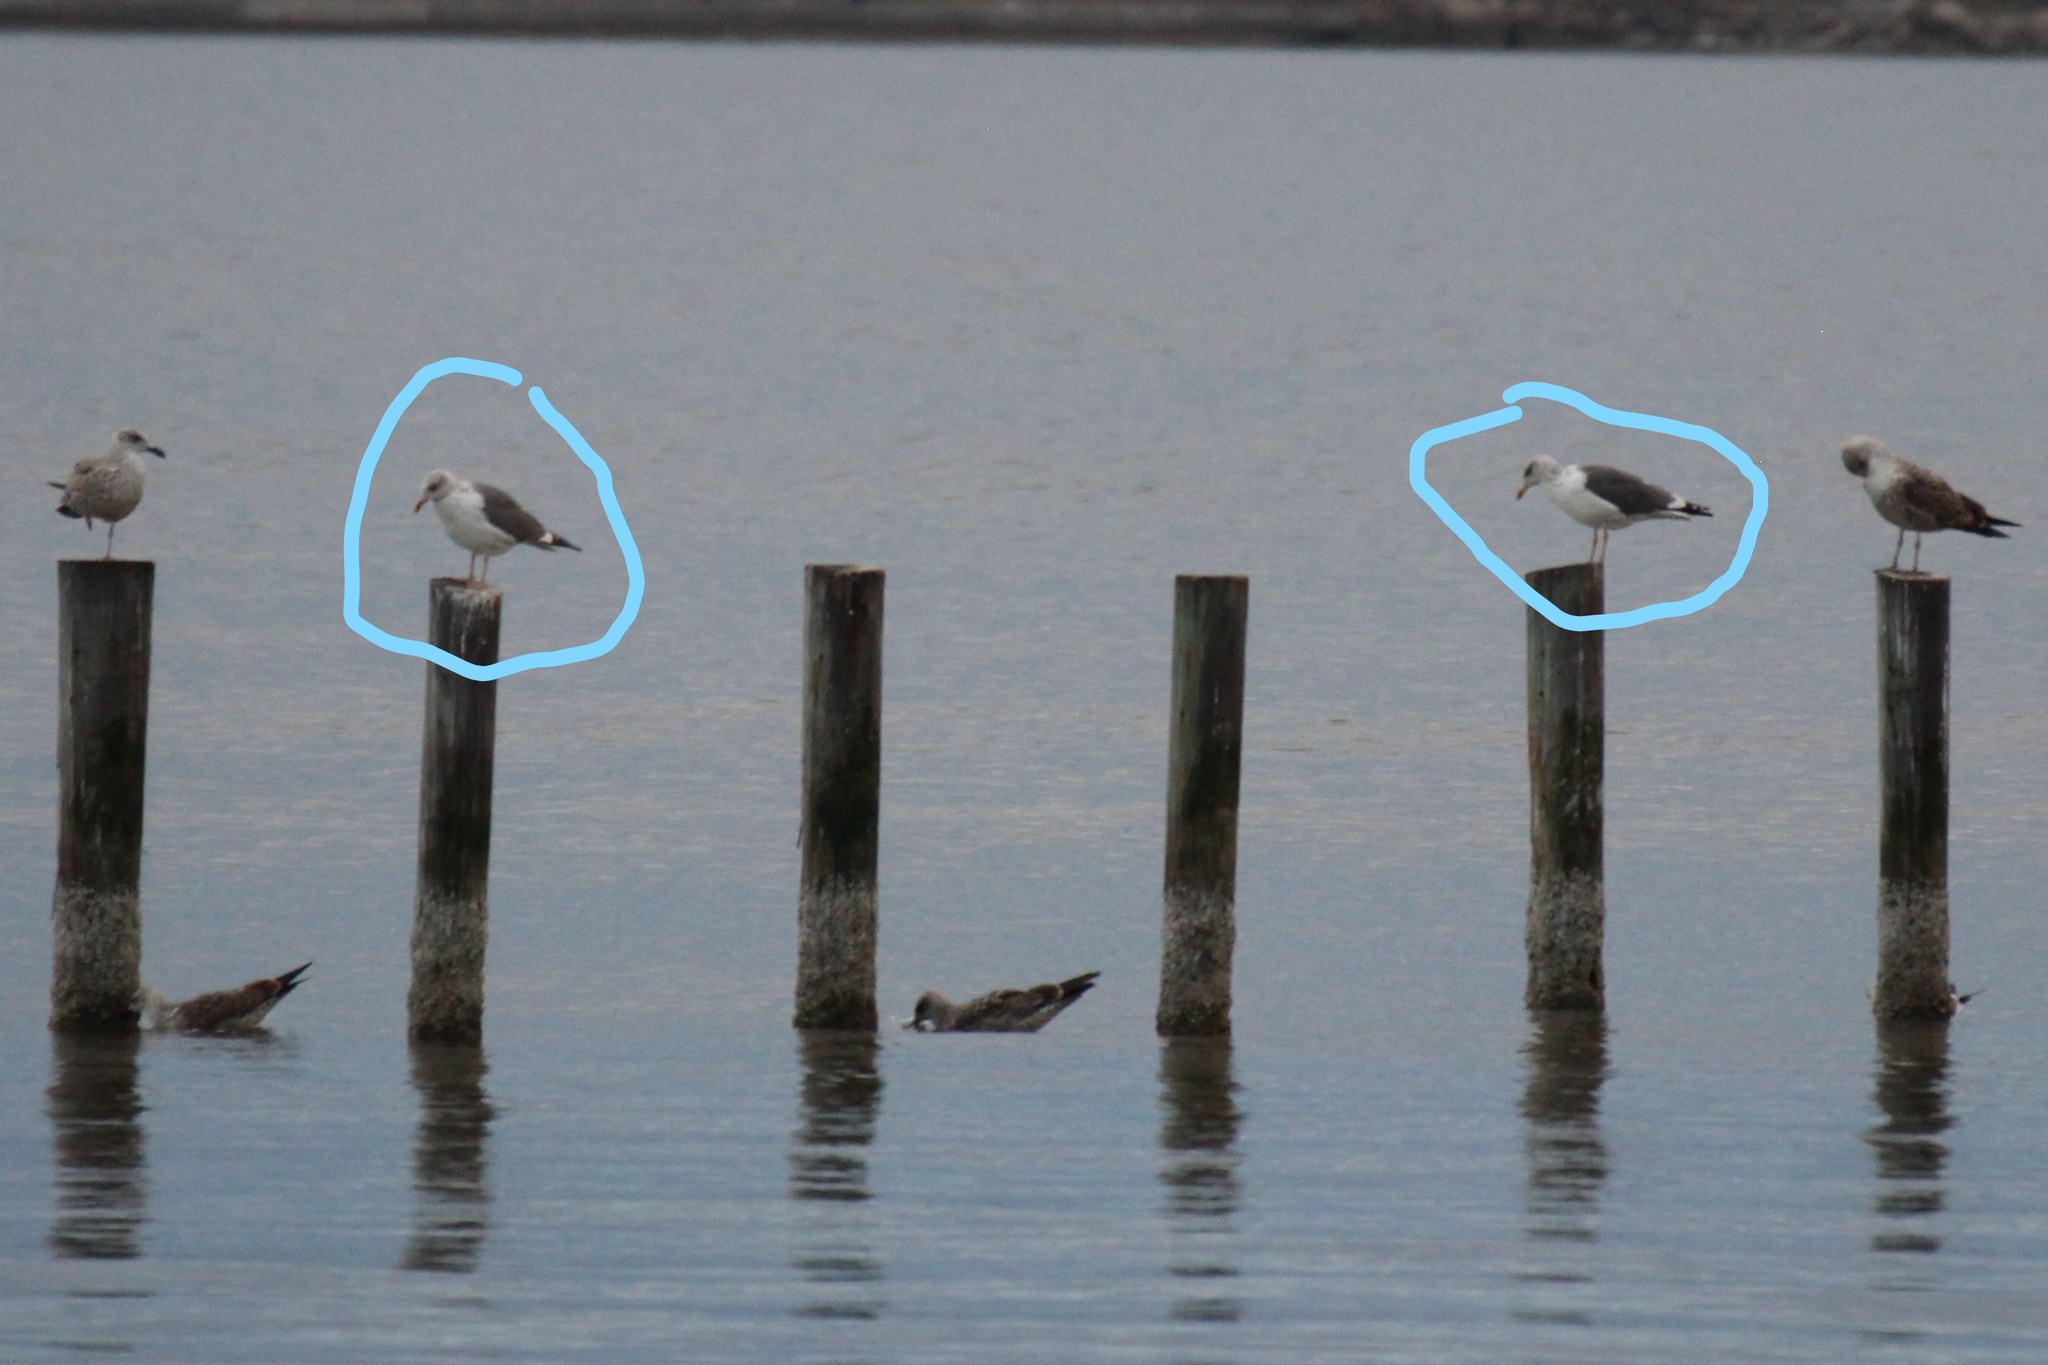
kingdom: Animalia
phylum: Chordata
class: Aves
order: Charadriiformes
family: Laridae
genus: Larus
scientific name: Larus fuscus
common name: Lesser black-backed gull
